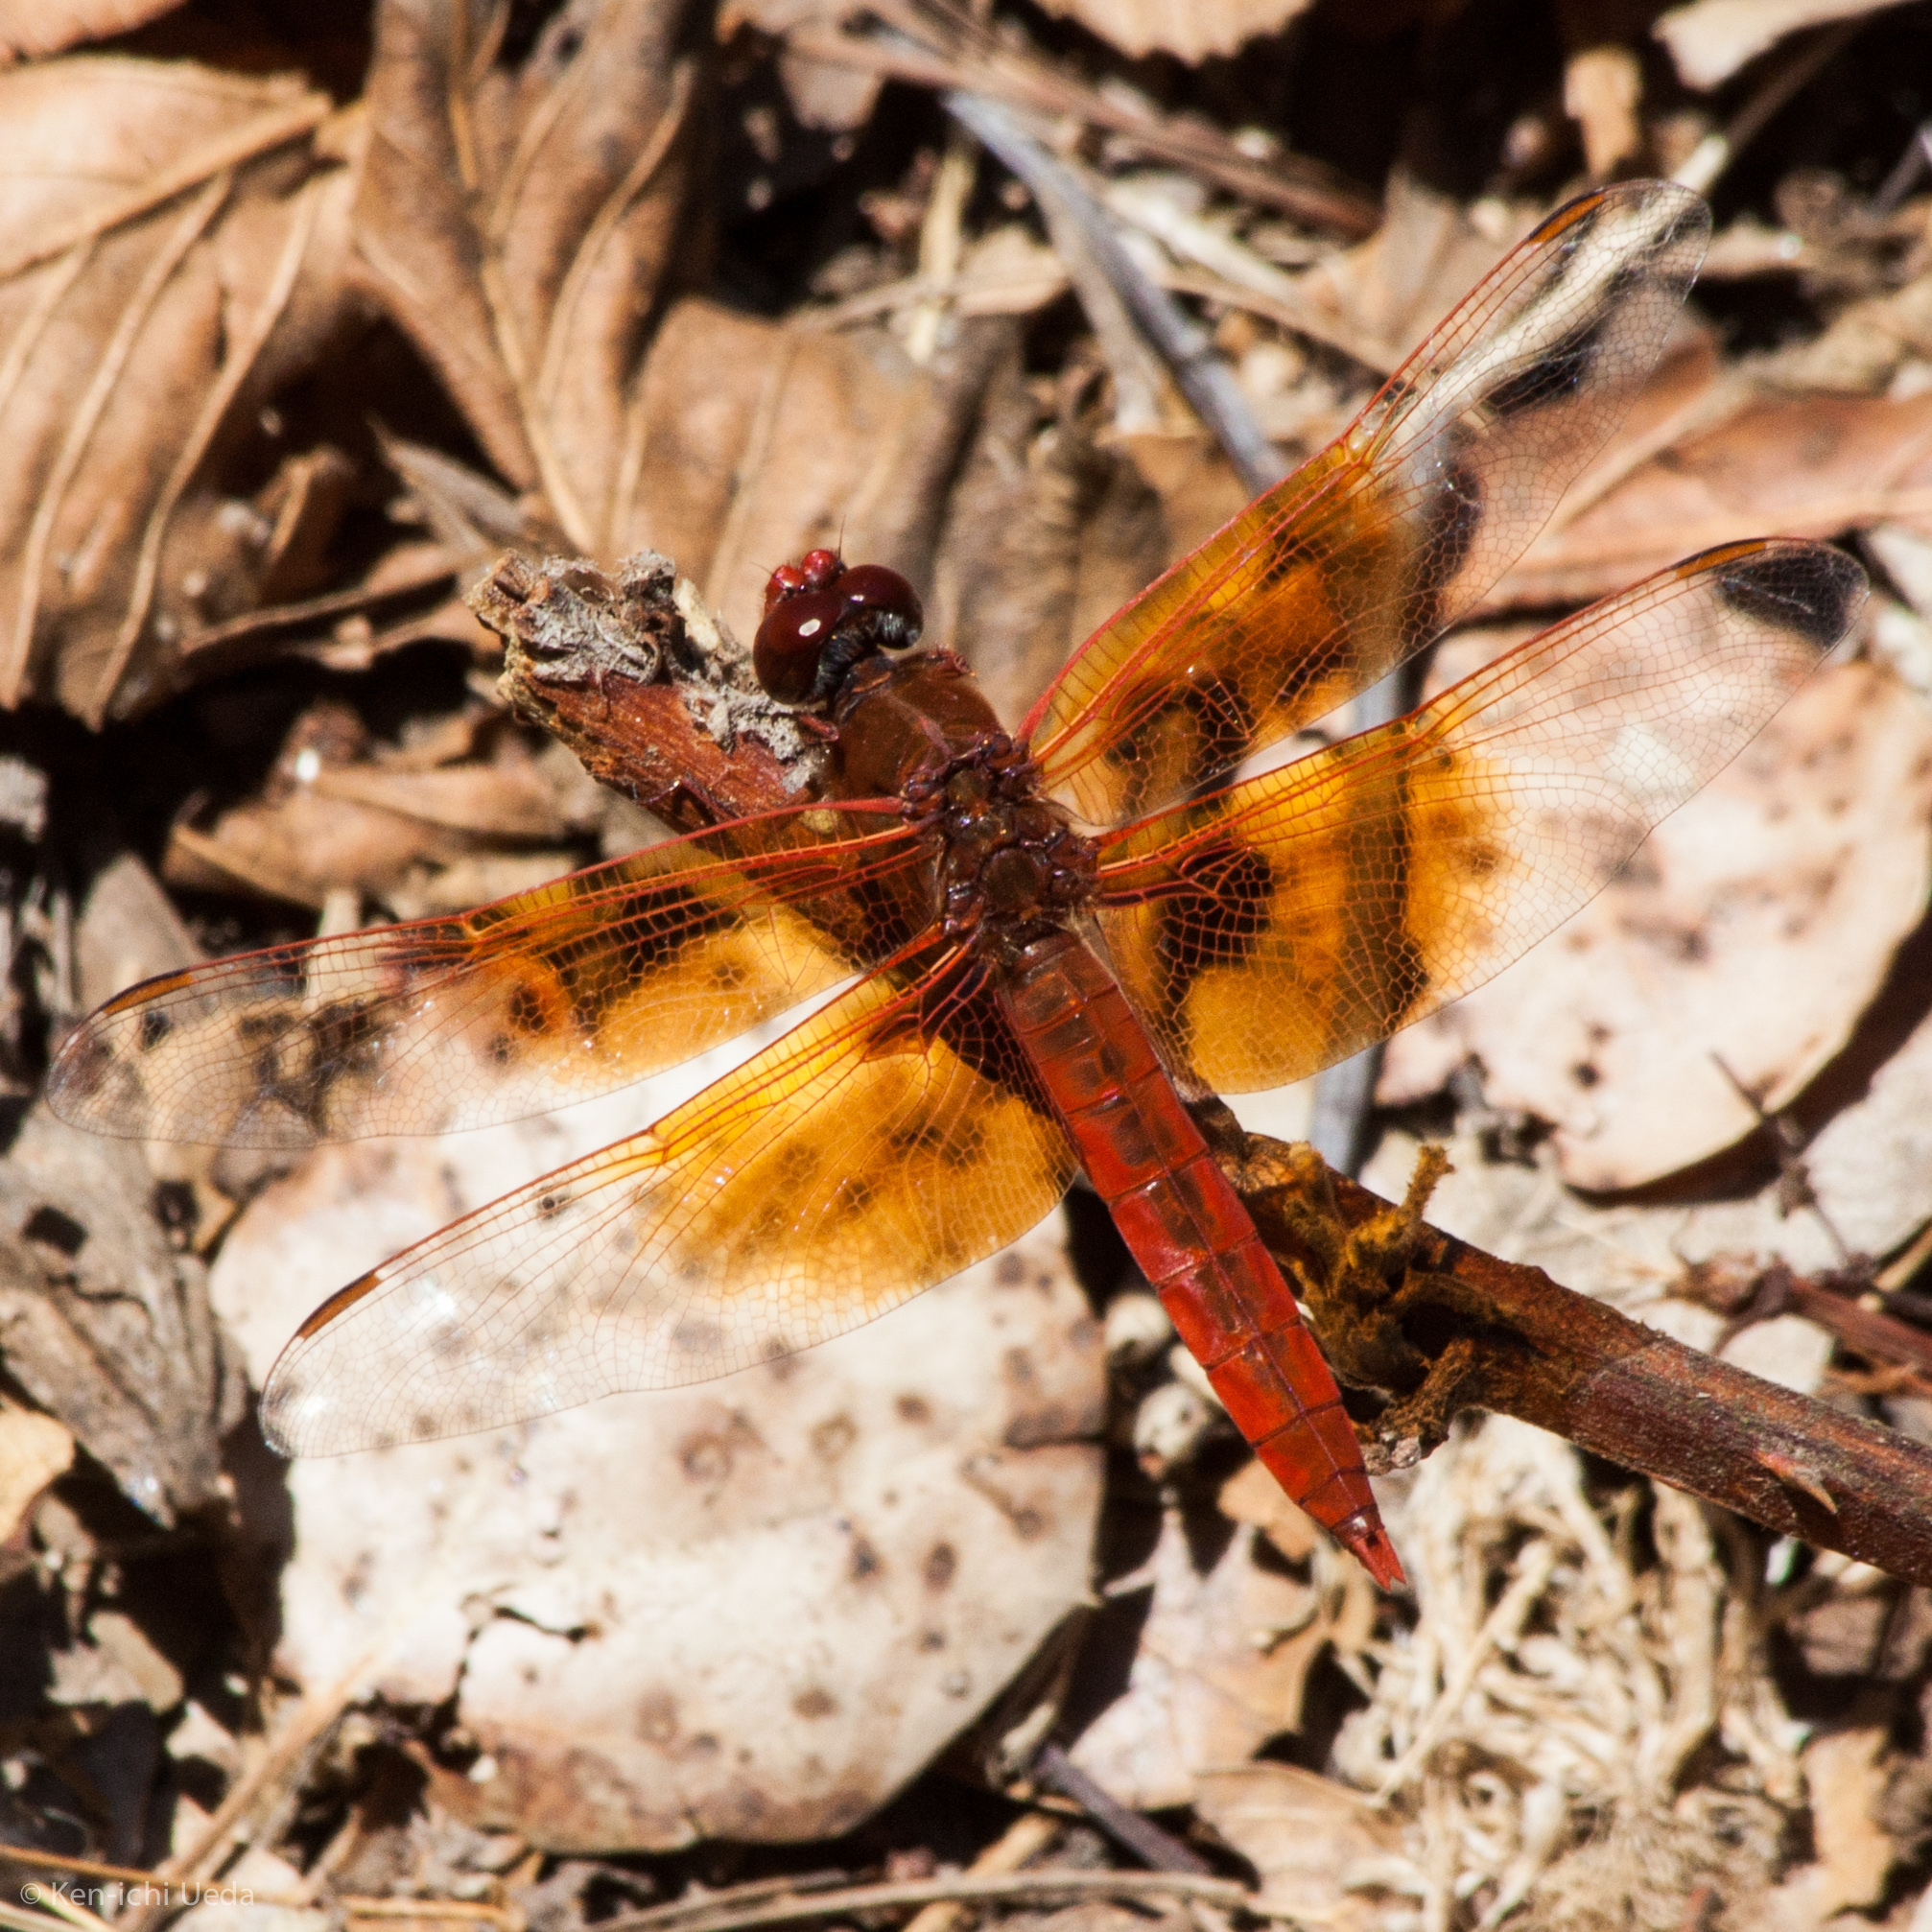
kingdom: Animalia
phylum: Arthropoda
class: Insecta
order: Odonata
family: Libellulidae
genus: Libellula
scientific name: Libellula saturata
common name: Flame skimmer
